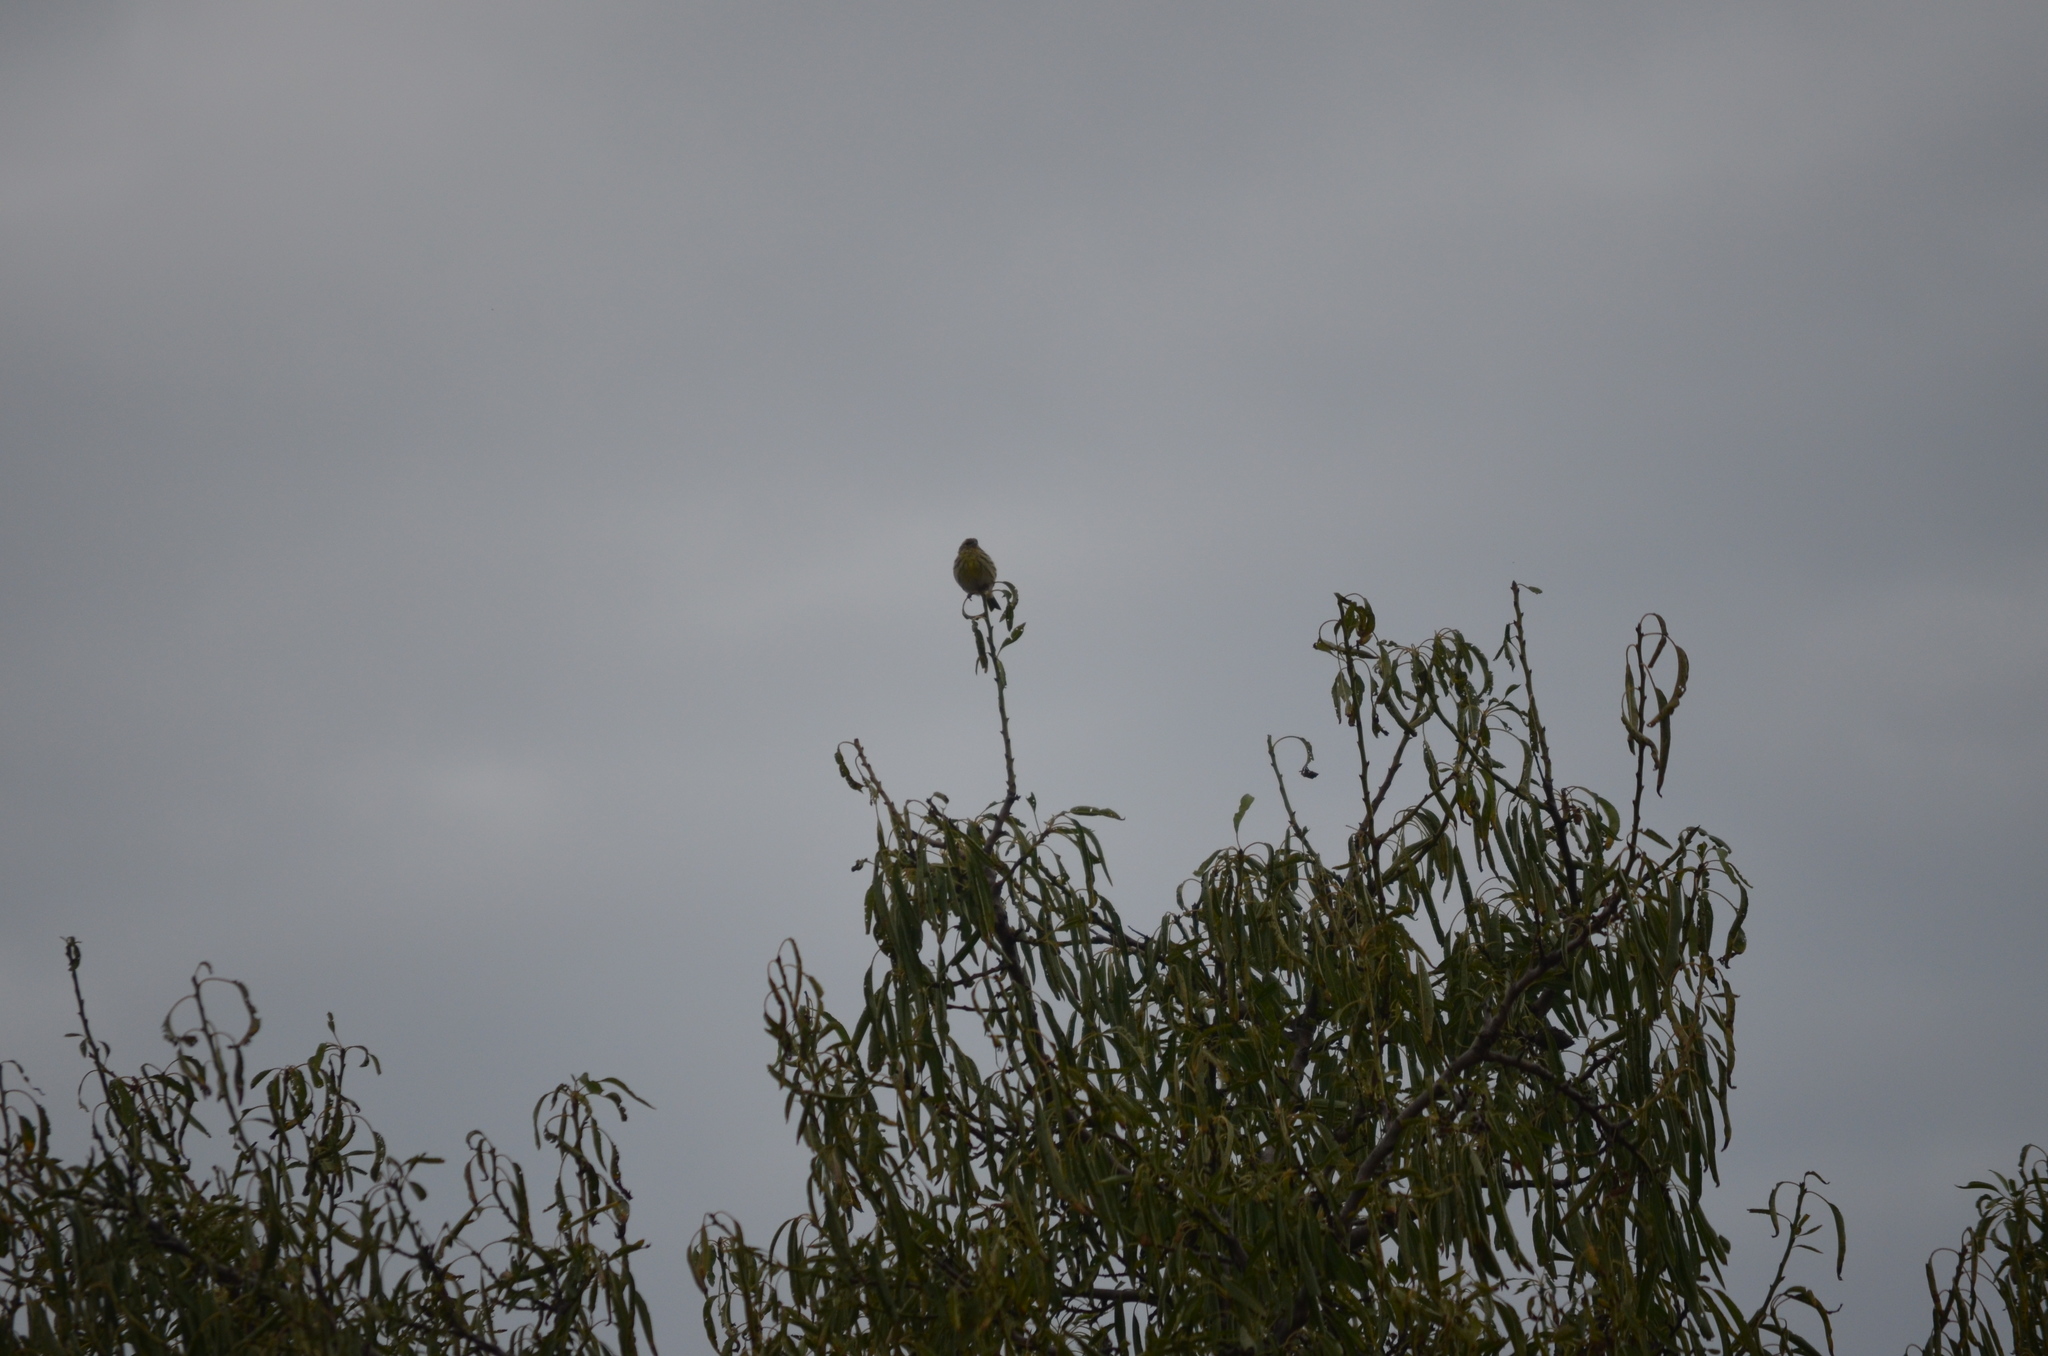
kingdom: Animalia
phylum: Chordata
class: Aves
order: Passeriformes
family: Fringillidae
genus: Serinus
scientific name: Serinus serinus
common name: European serin
